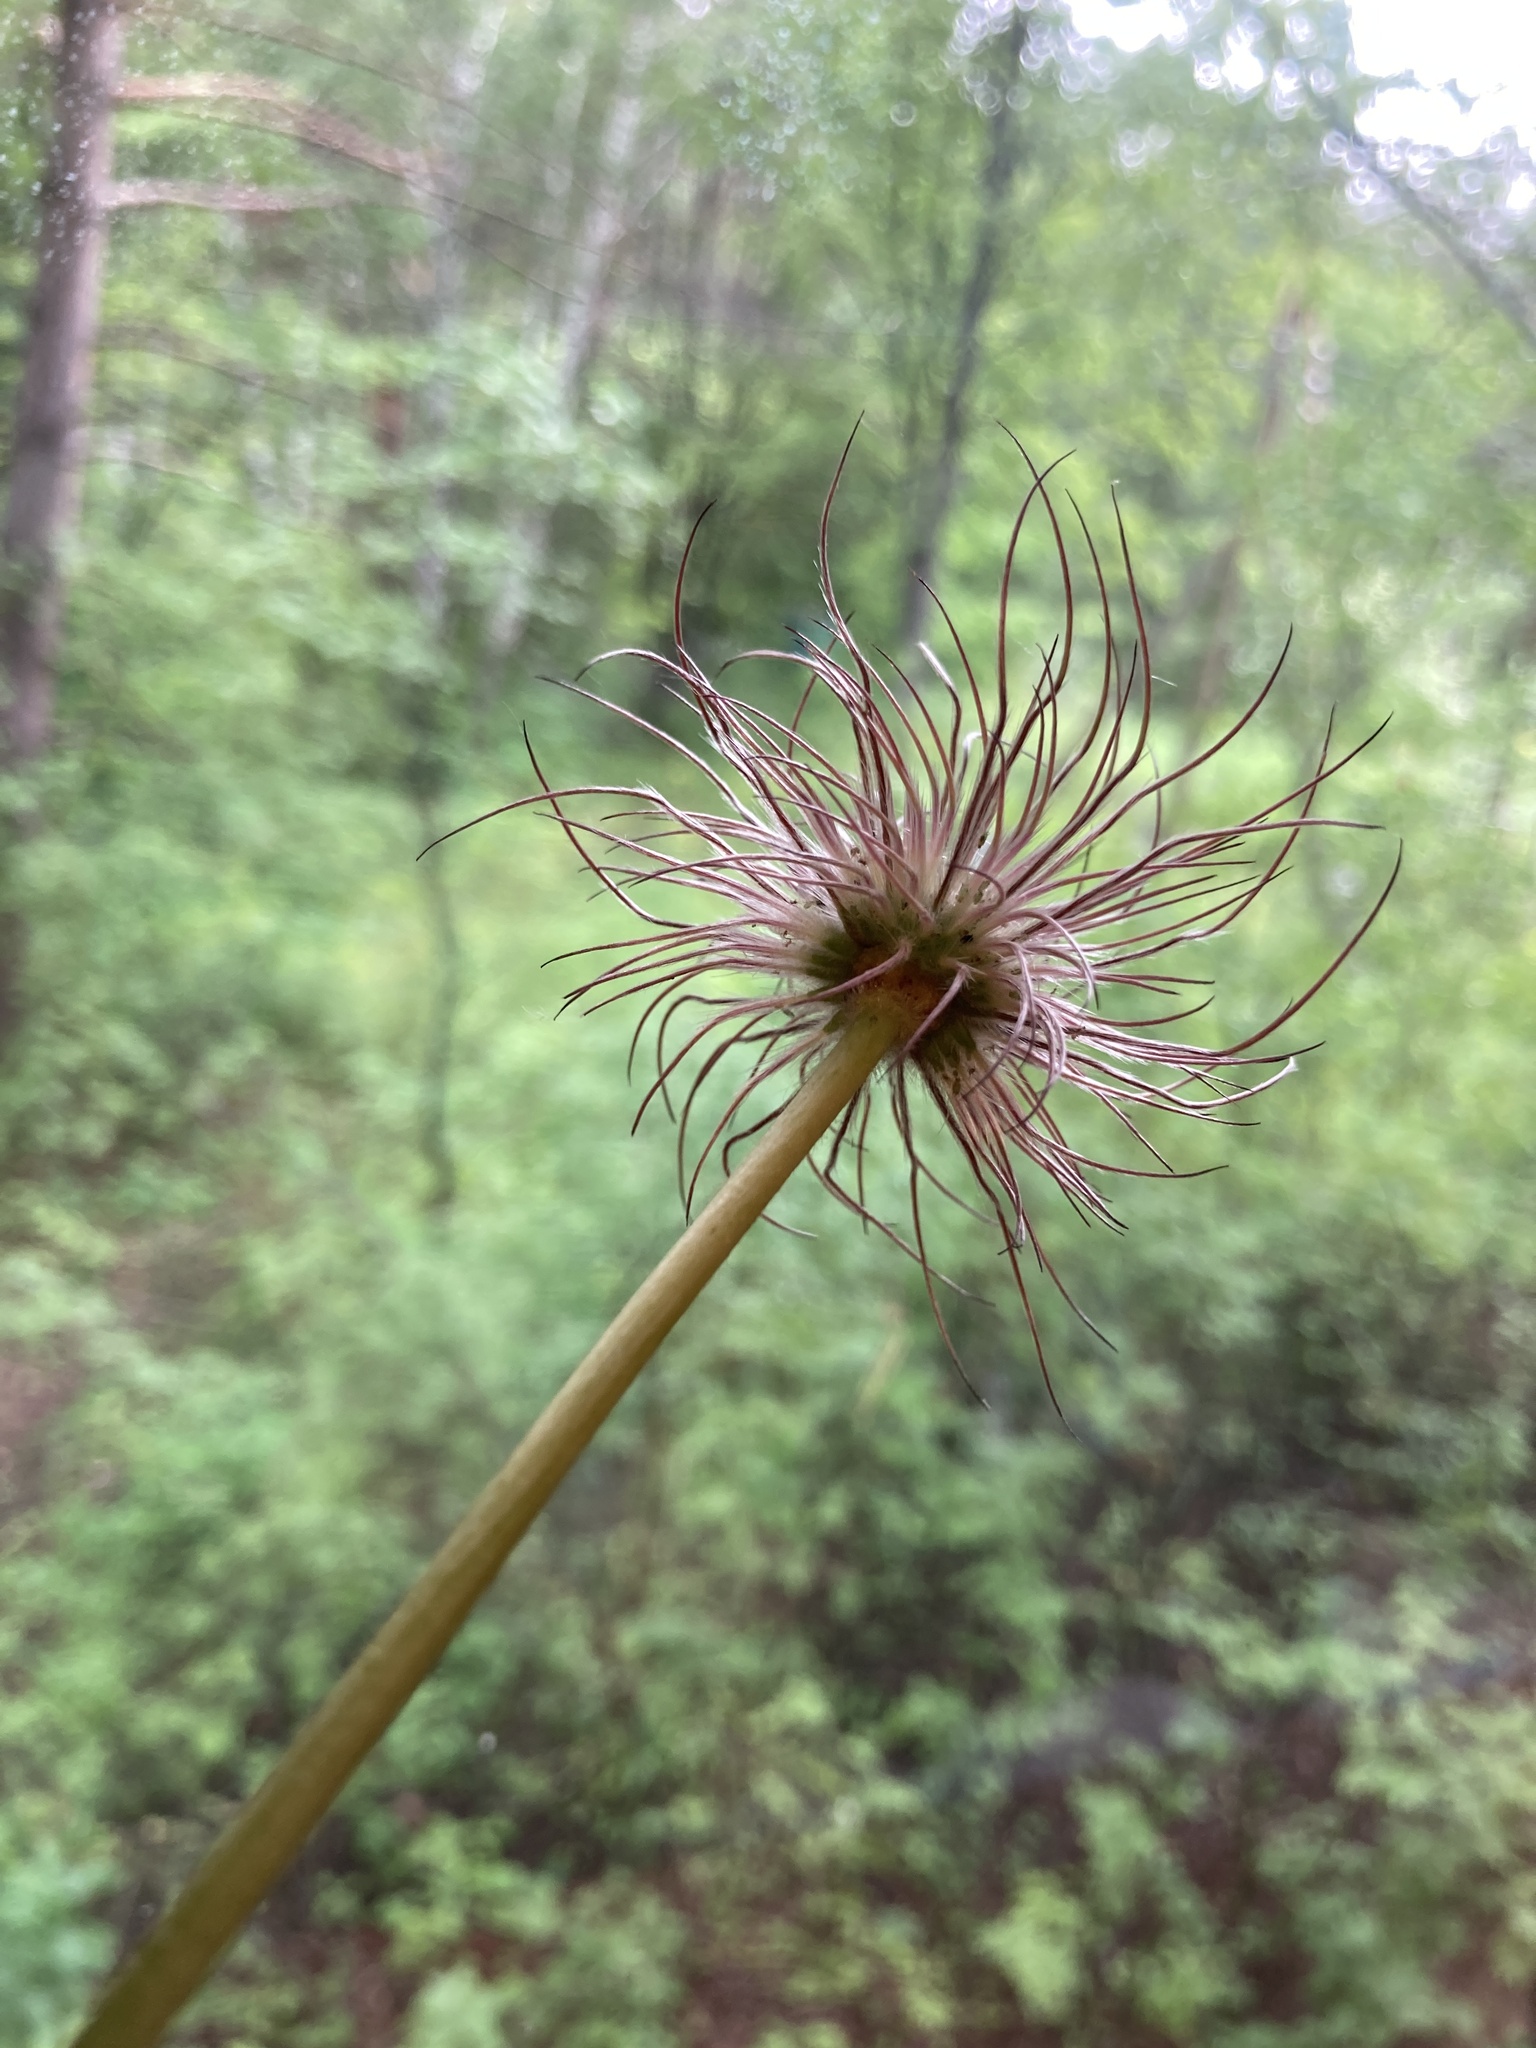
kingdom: Plantae
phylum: Tracheophyta
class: Magnoliopsida
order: Ranunculales
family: Ranunculaceae
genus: Pulsatilla
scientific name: Pulsatilla patens
